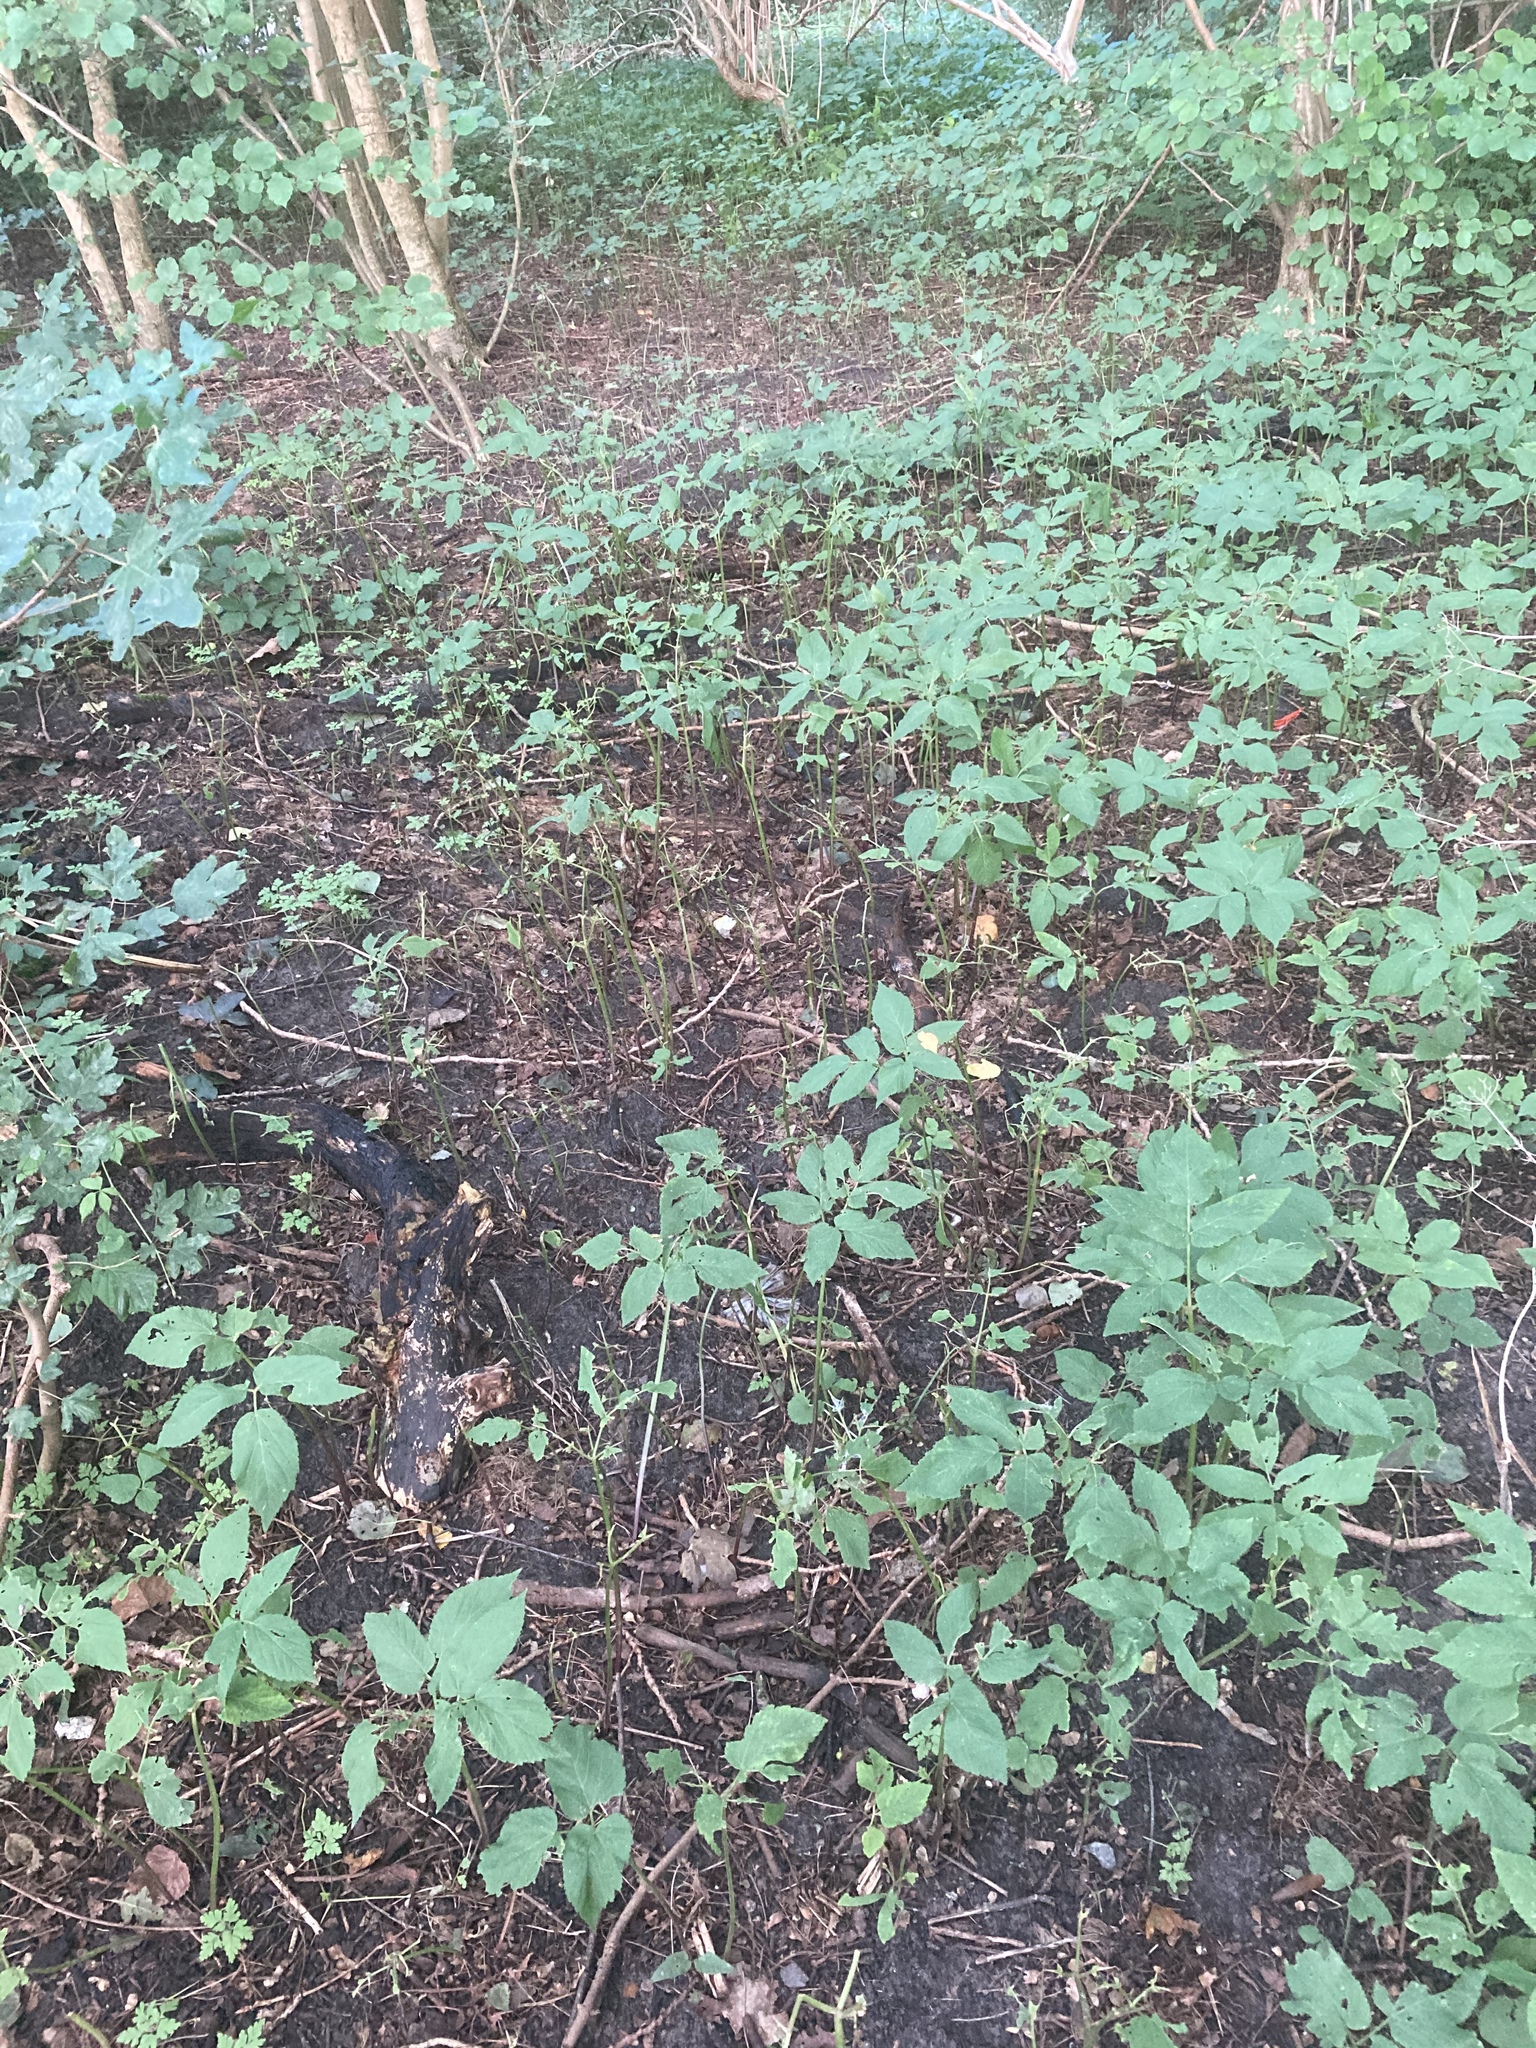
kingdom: Plantae
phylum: Tracheophyta
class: Magnoliopsida
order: Apiales
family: Apiaceae
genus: Aegopodium
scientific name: Aegopodium podagraria
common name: Ground-elder
